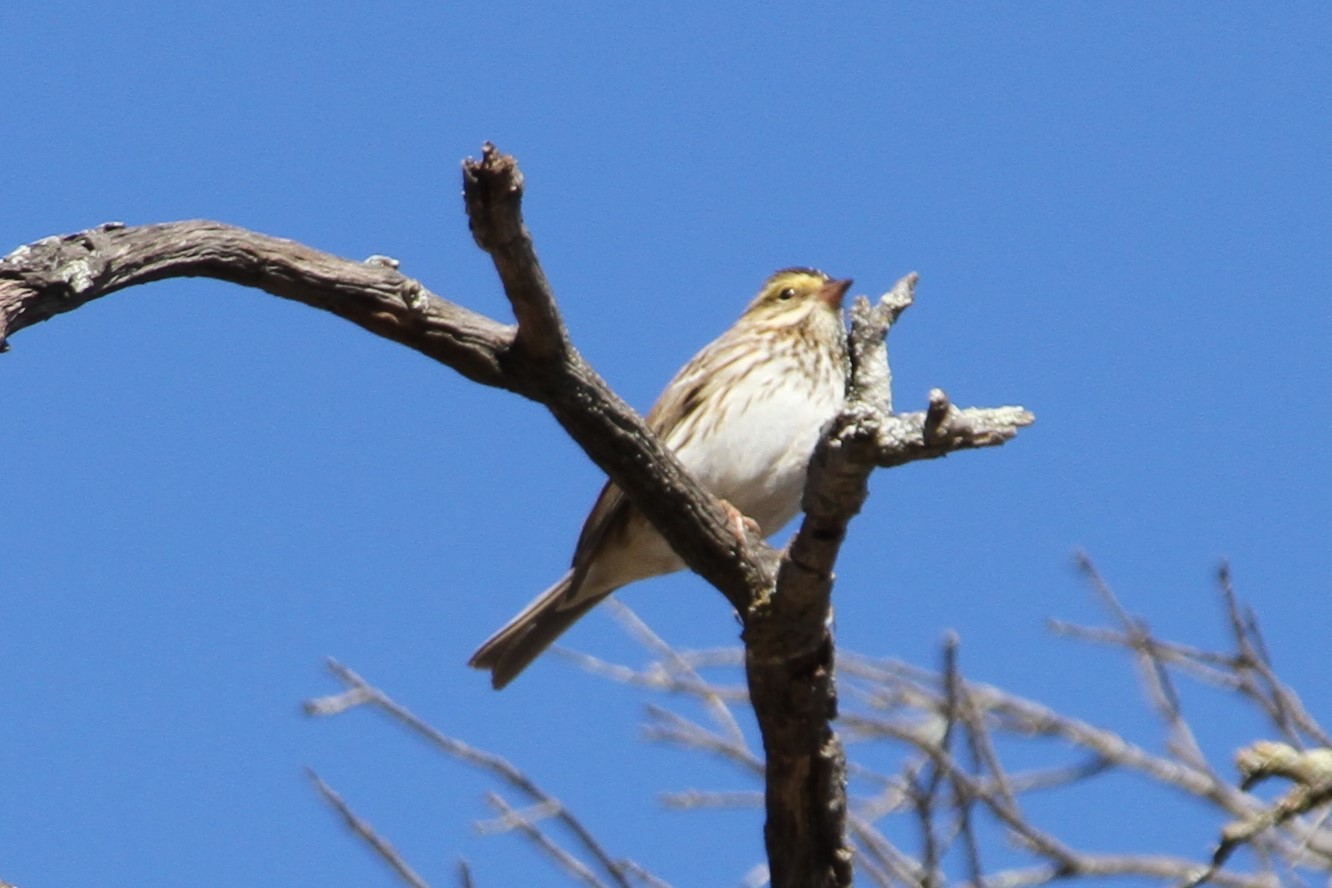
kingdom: Animalia
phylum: Chordata
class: Aves
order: Passeriformes
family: Passerellidae
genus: Passerculus
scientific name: Passerculus sandwichensis
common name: Savannah sparrow
